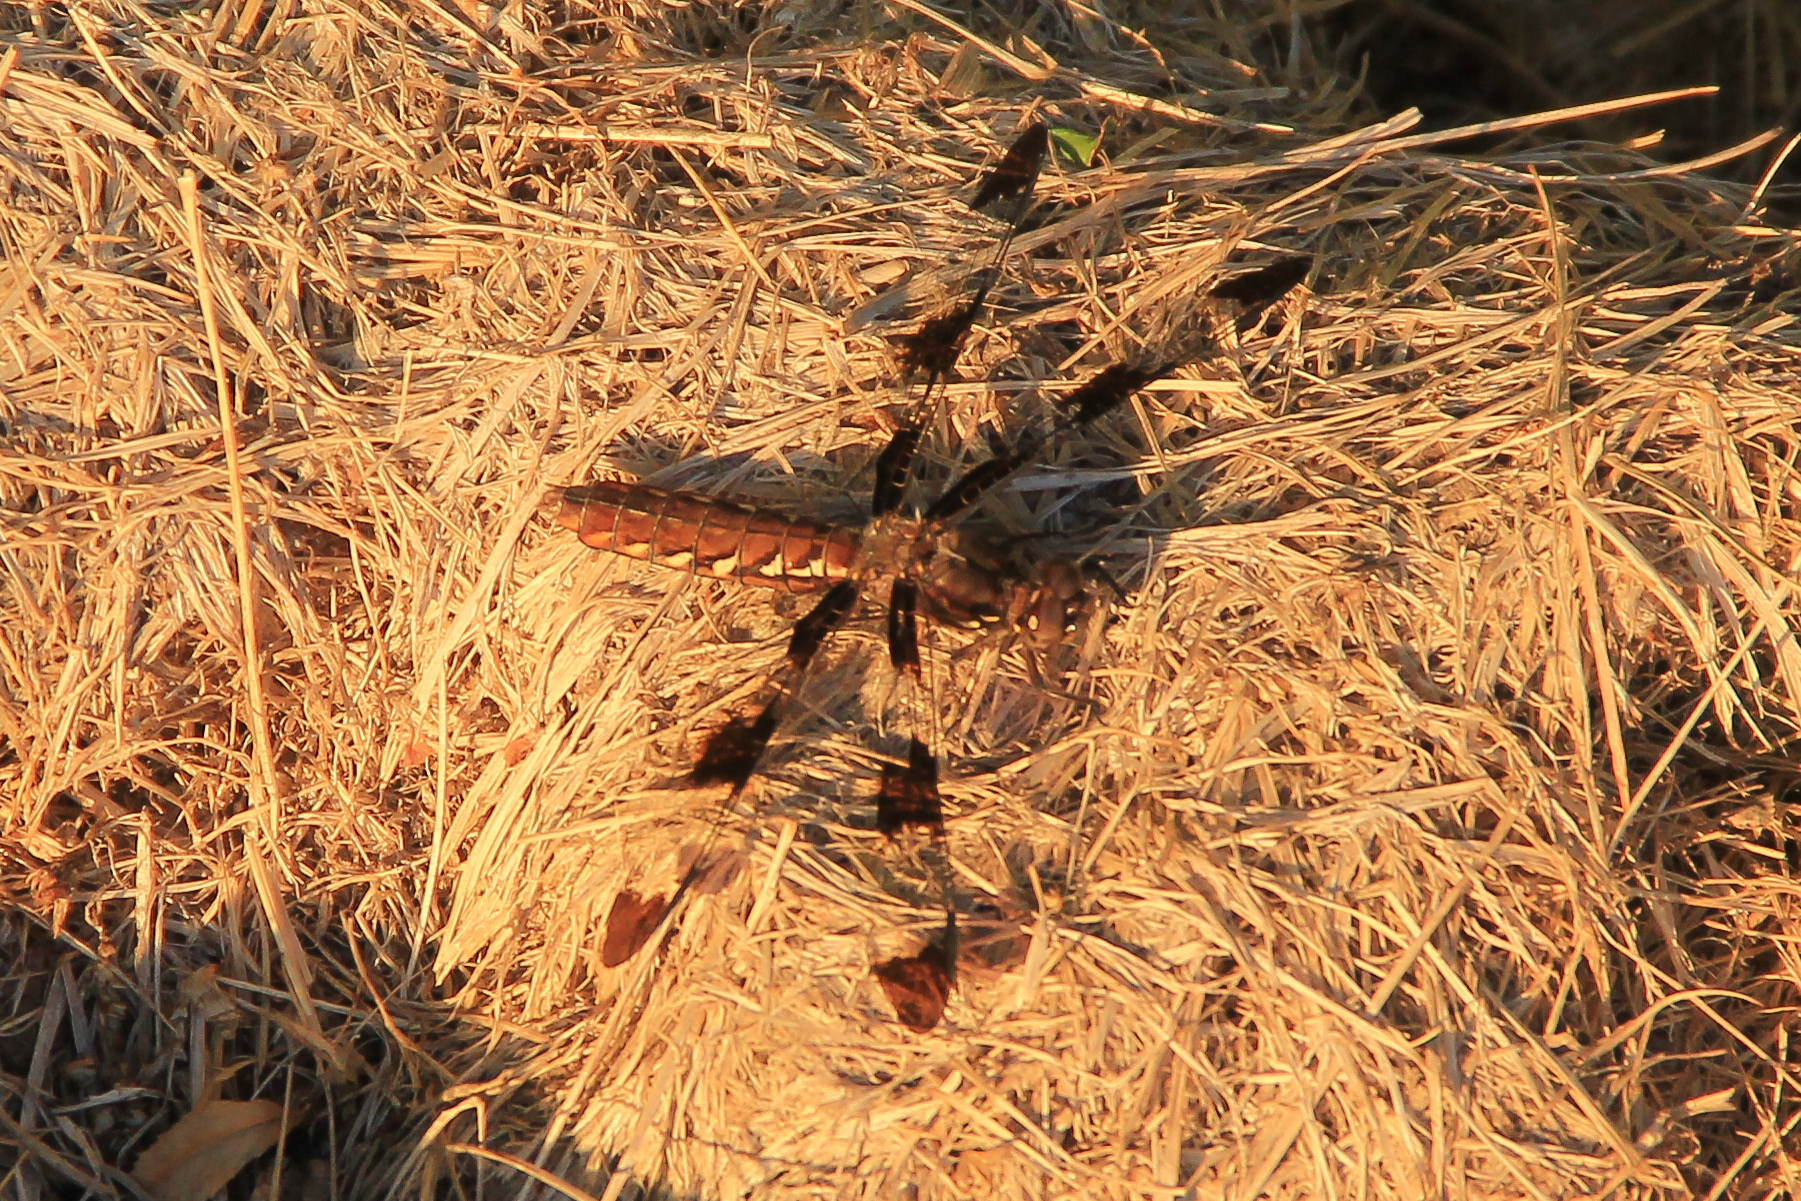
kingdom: Animalia
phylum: Arthropoda
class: Insecta
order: Odonata
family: Libellulidae
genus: Plathemis
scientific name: Plathemis lydia
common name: Common whitetail
